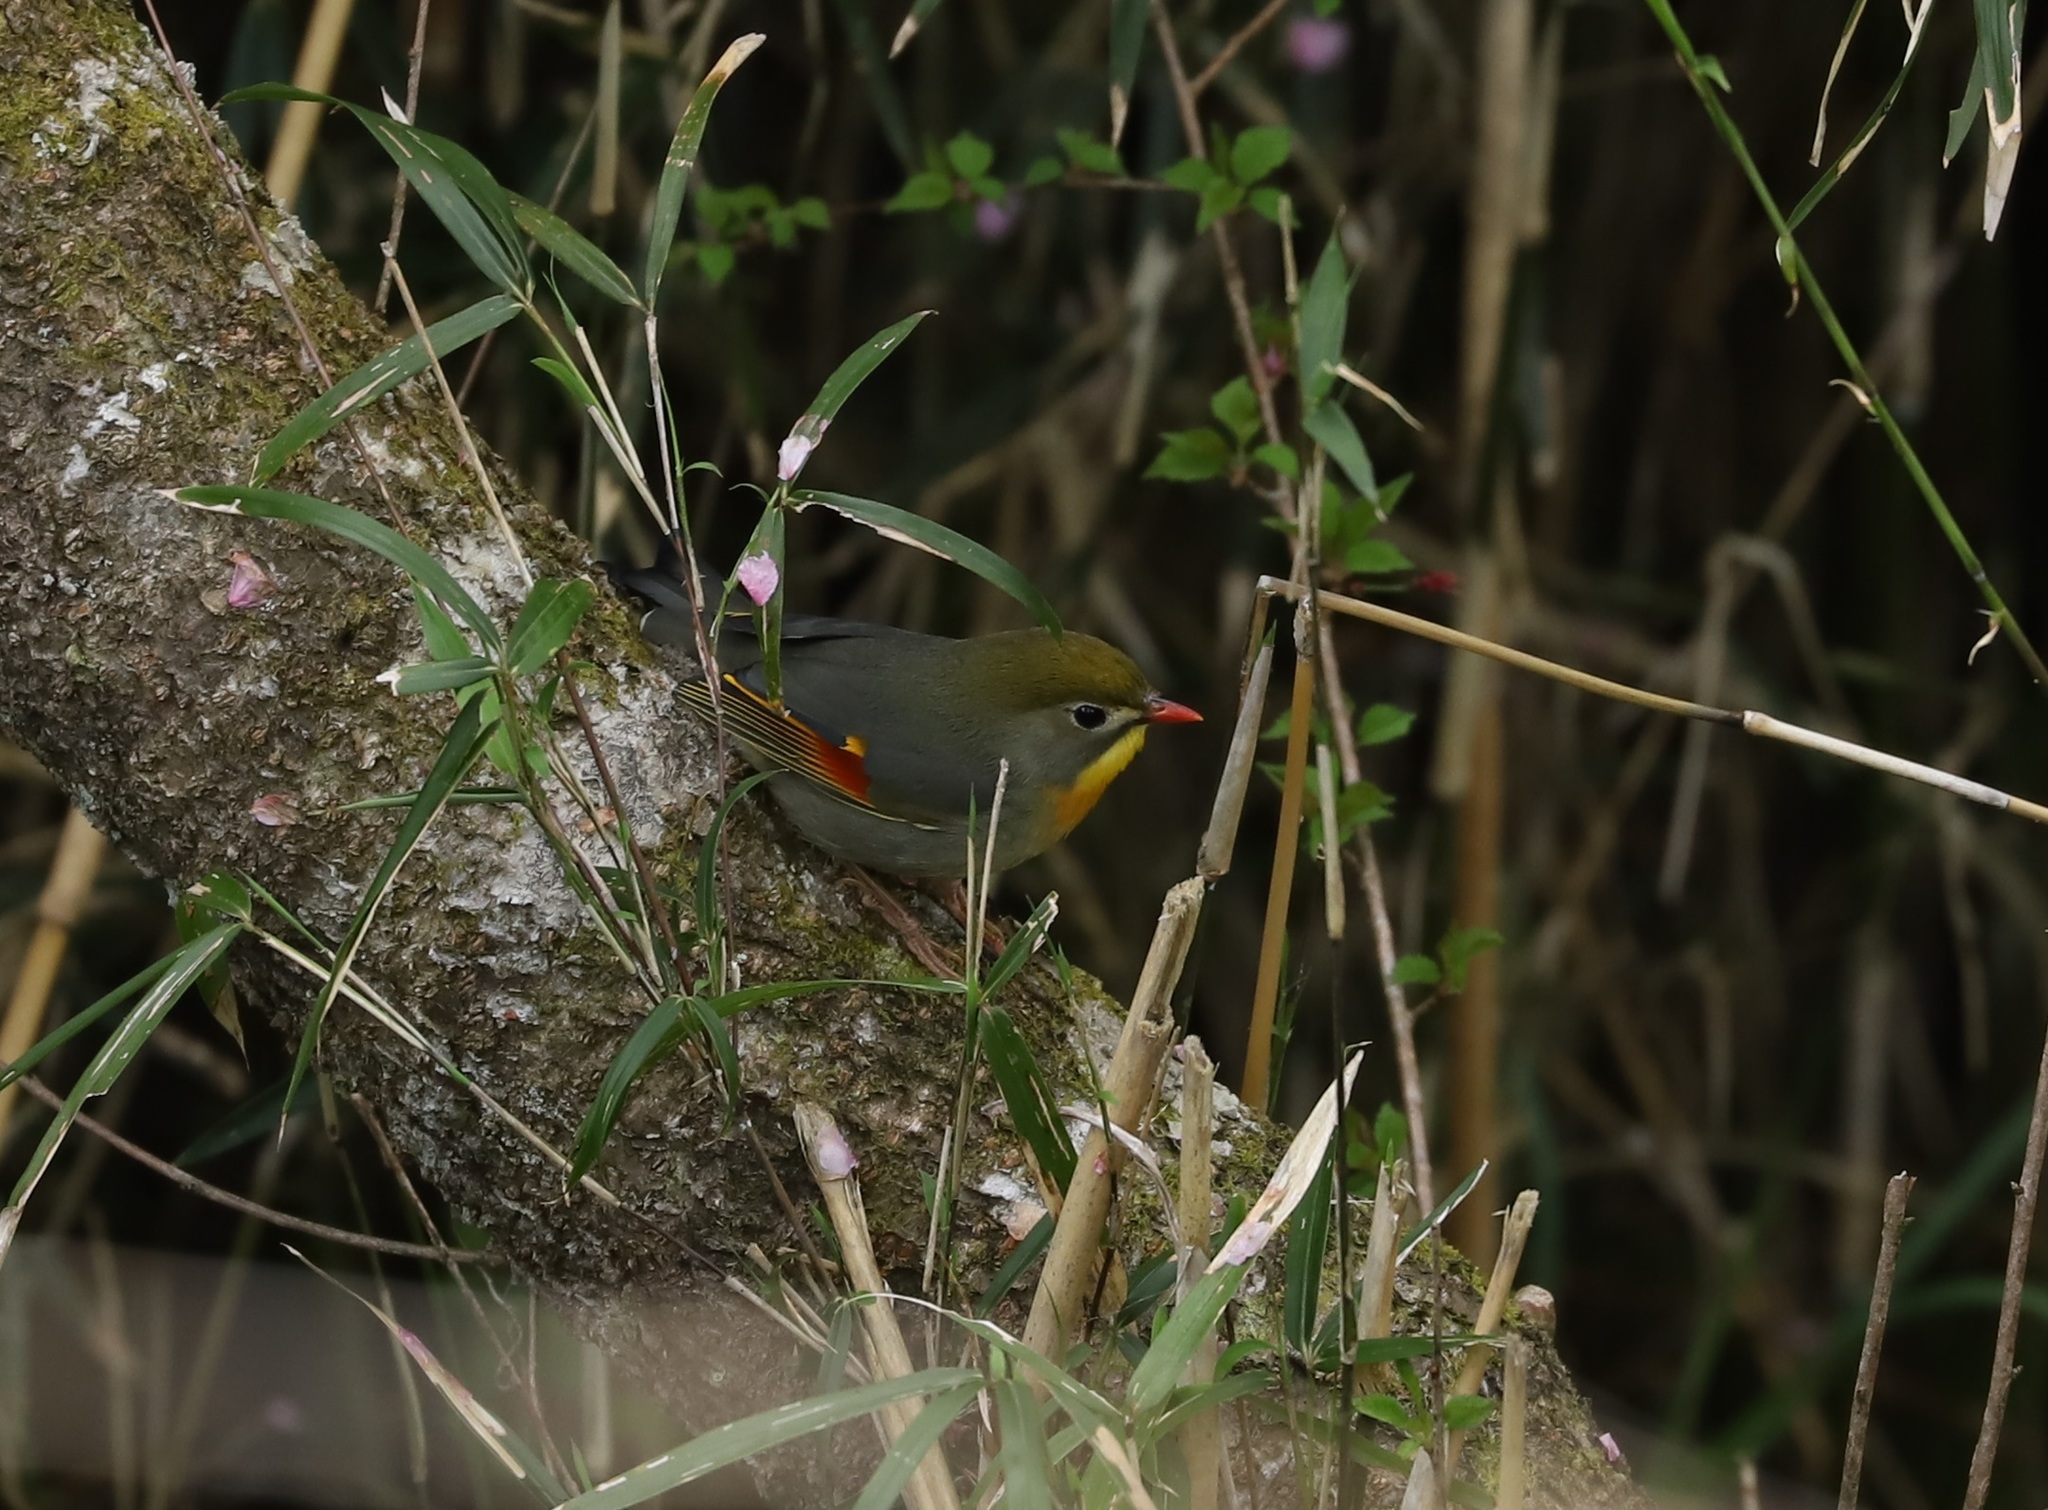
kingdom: Animalia
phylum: Chordata
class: Aves
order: Passeriformes
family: Leiothrichidae
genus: Leiothrix
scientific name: Leiothrix lutea
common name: Red-billed leiothrix
